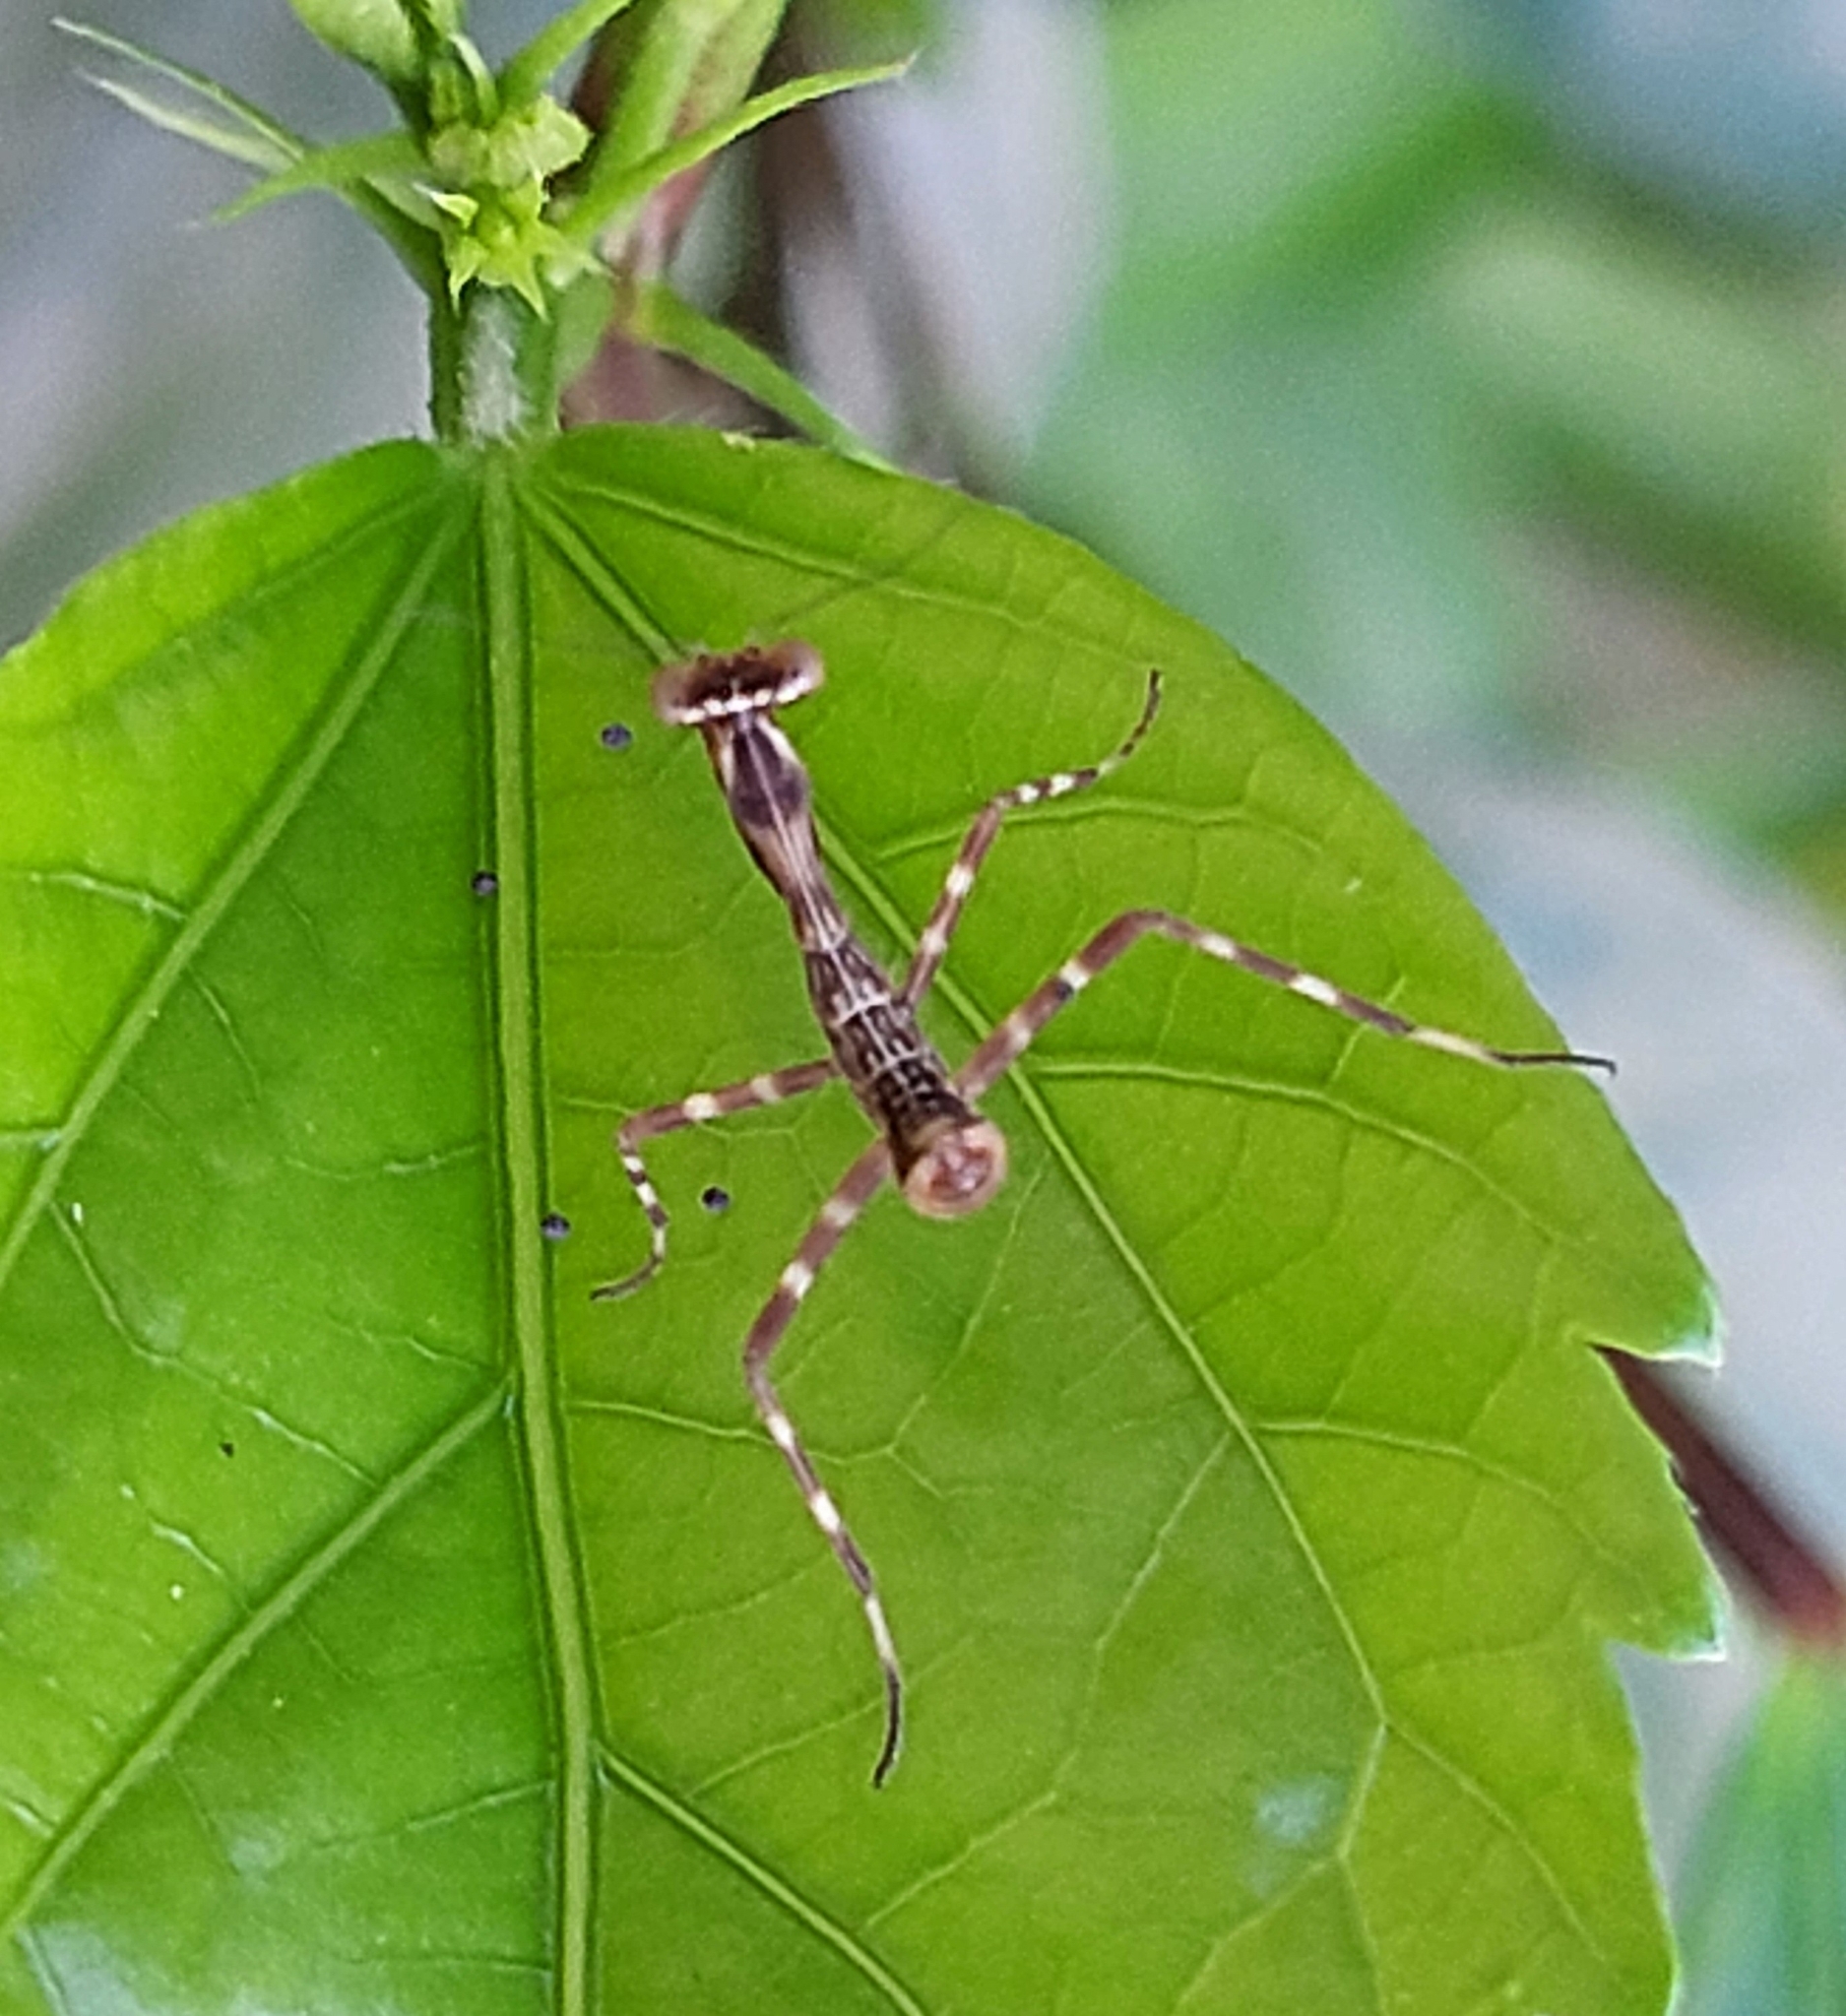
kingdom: Animalia
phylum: Arthropoda
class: Insecta
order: Mantodea
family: Mantidae
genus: Stagmatoptera
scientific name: Stagmatoptera septentrionalis
